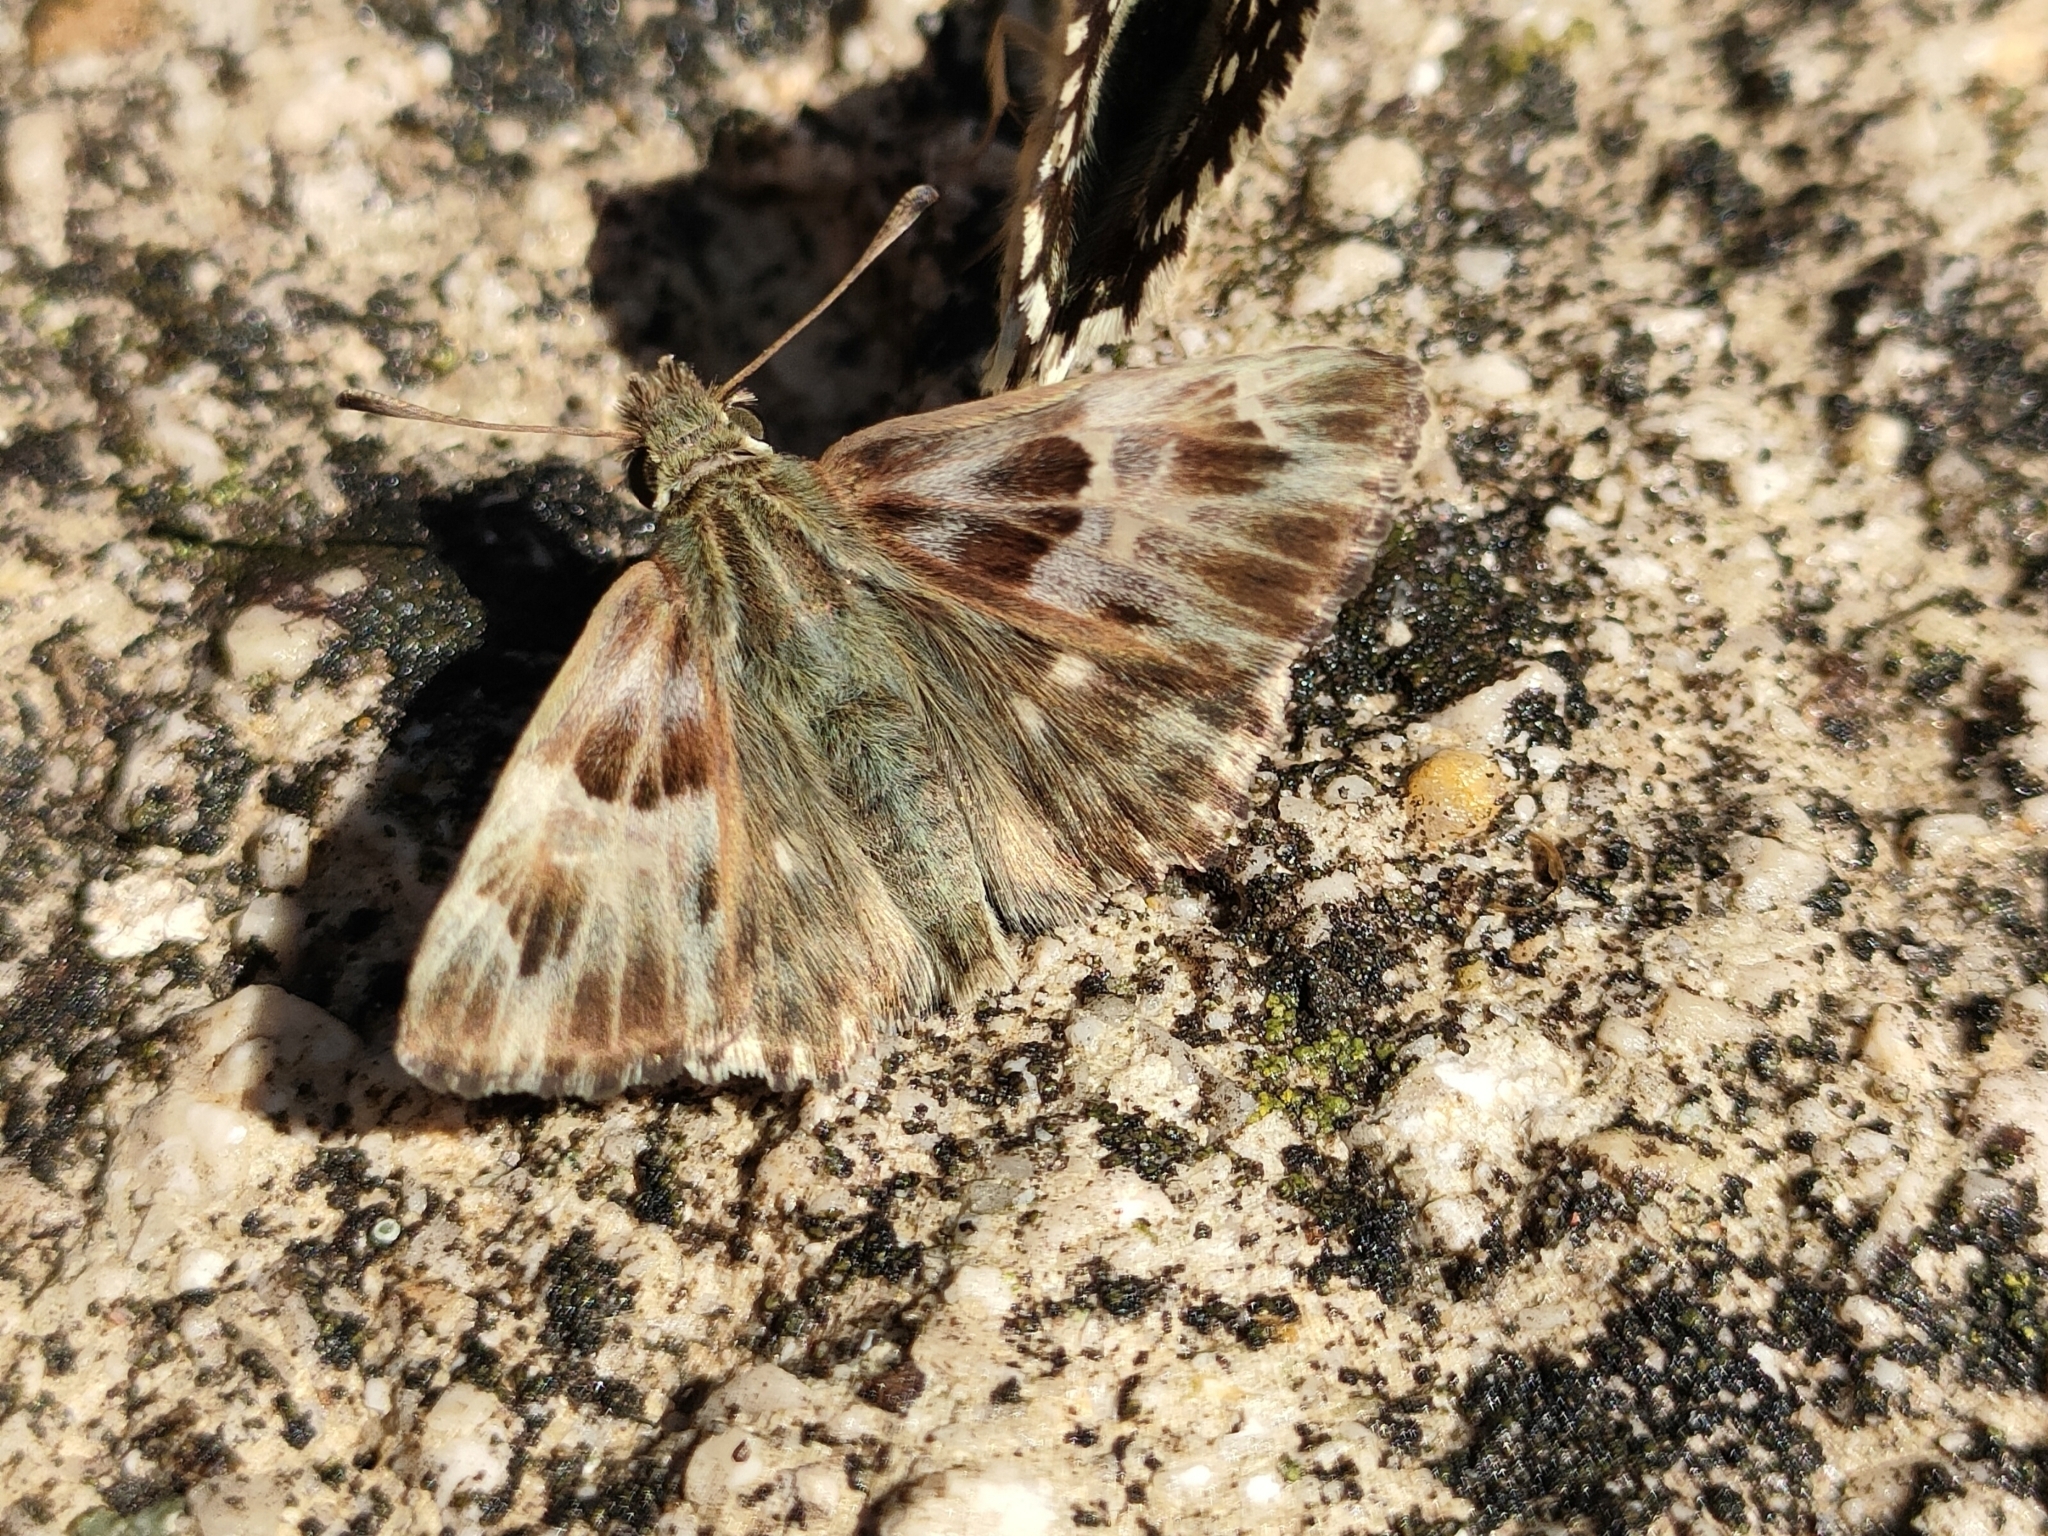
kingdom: Animalia
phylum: Arthropoda
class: Insecta
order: Lepidoptera
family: Hesperiidae
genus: Carcharodus
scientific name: Carcharodus floccifera
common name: Tufted marbled skipper
